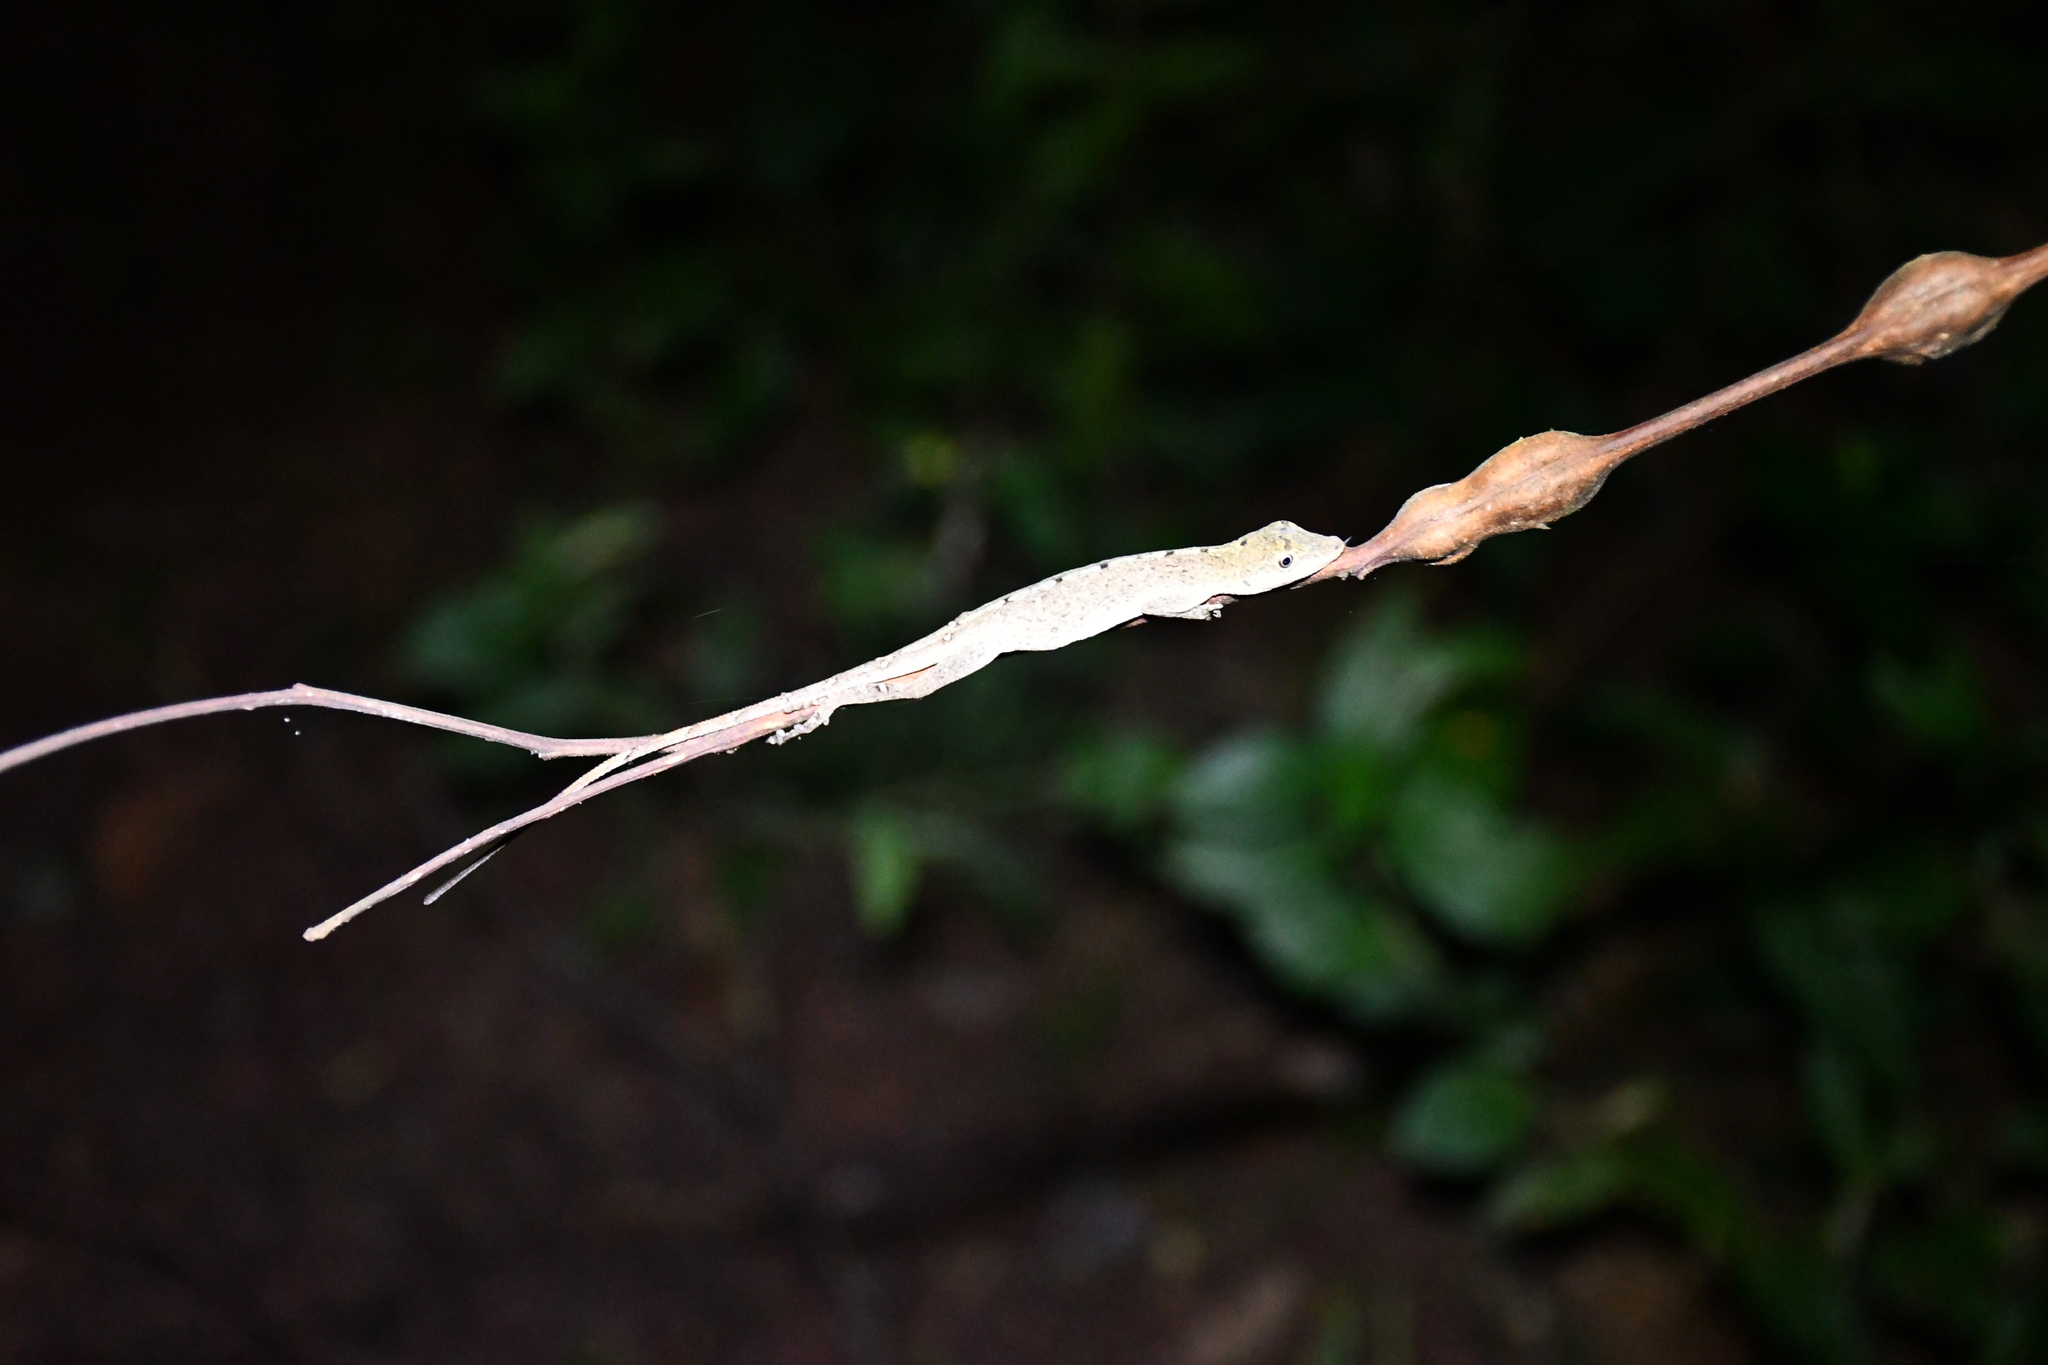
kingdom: Animalia
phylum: Chordata
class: Squamata
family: Dactyloidae
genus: Anolis
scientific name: Anolis fuscoauratus
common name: Brown-eared anole
